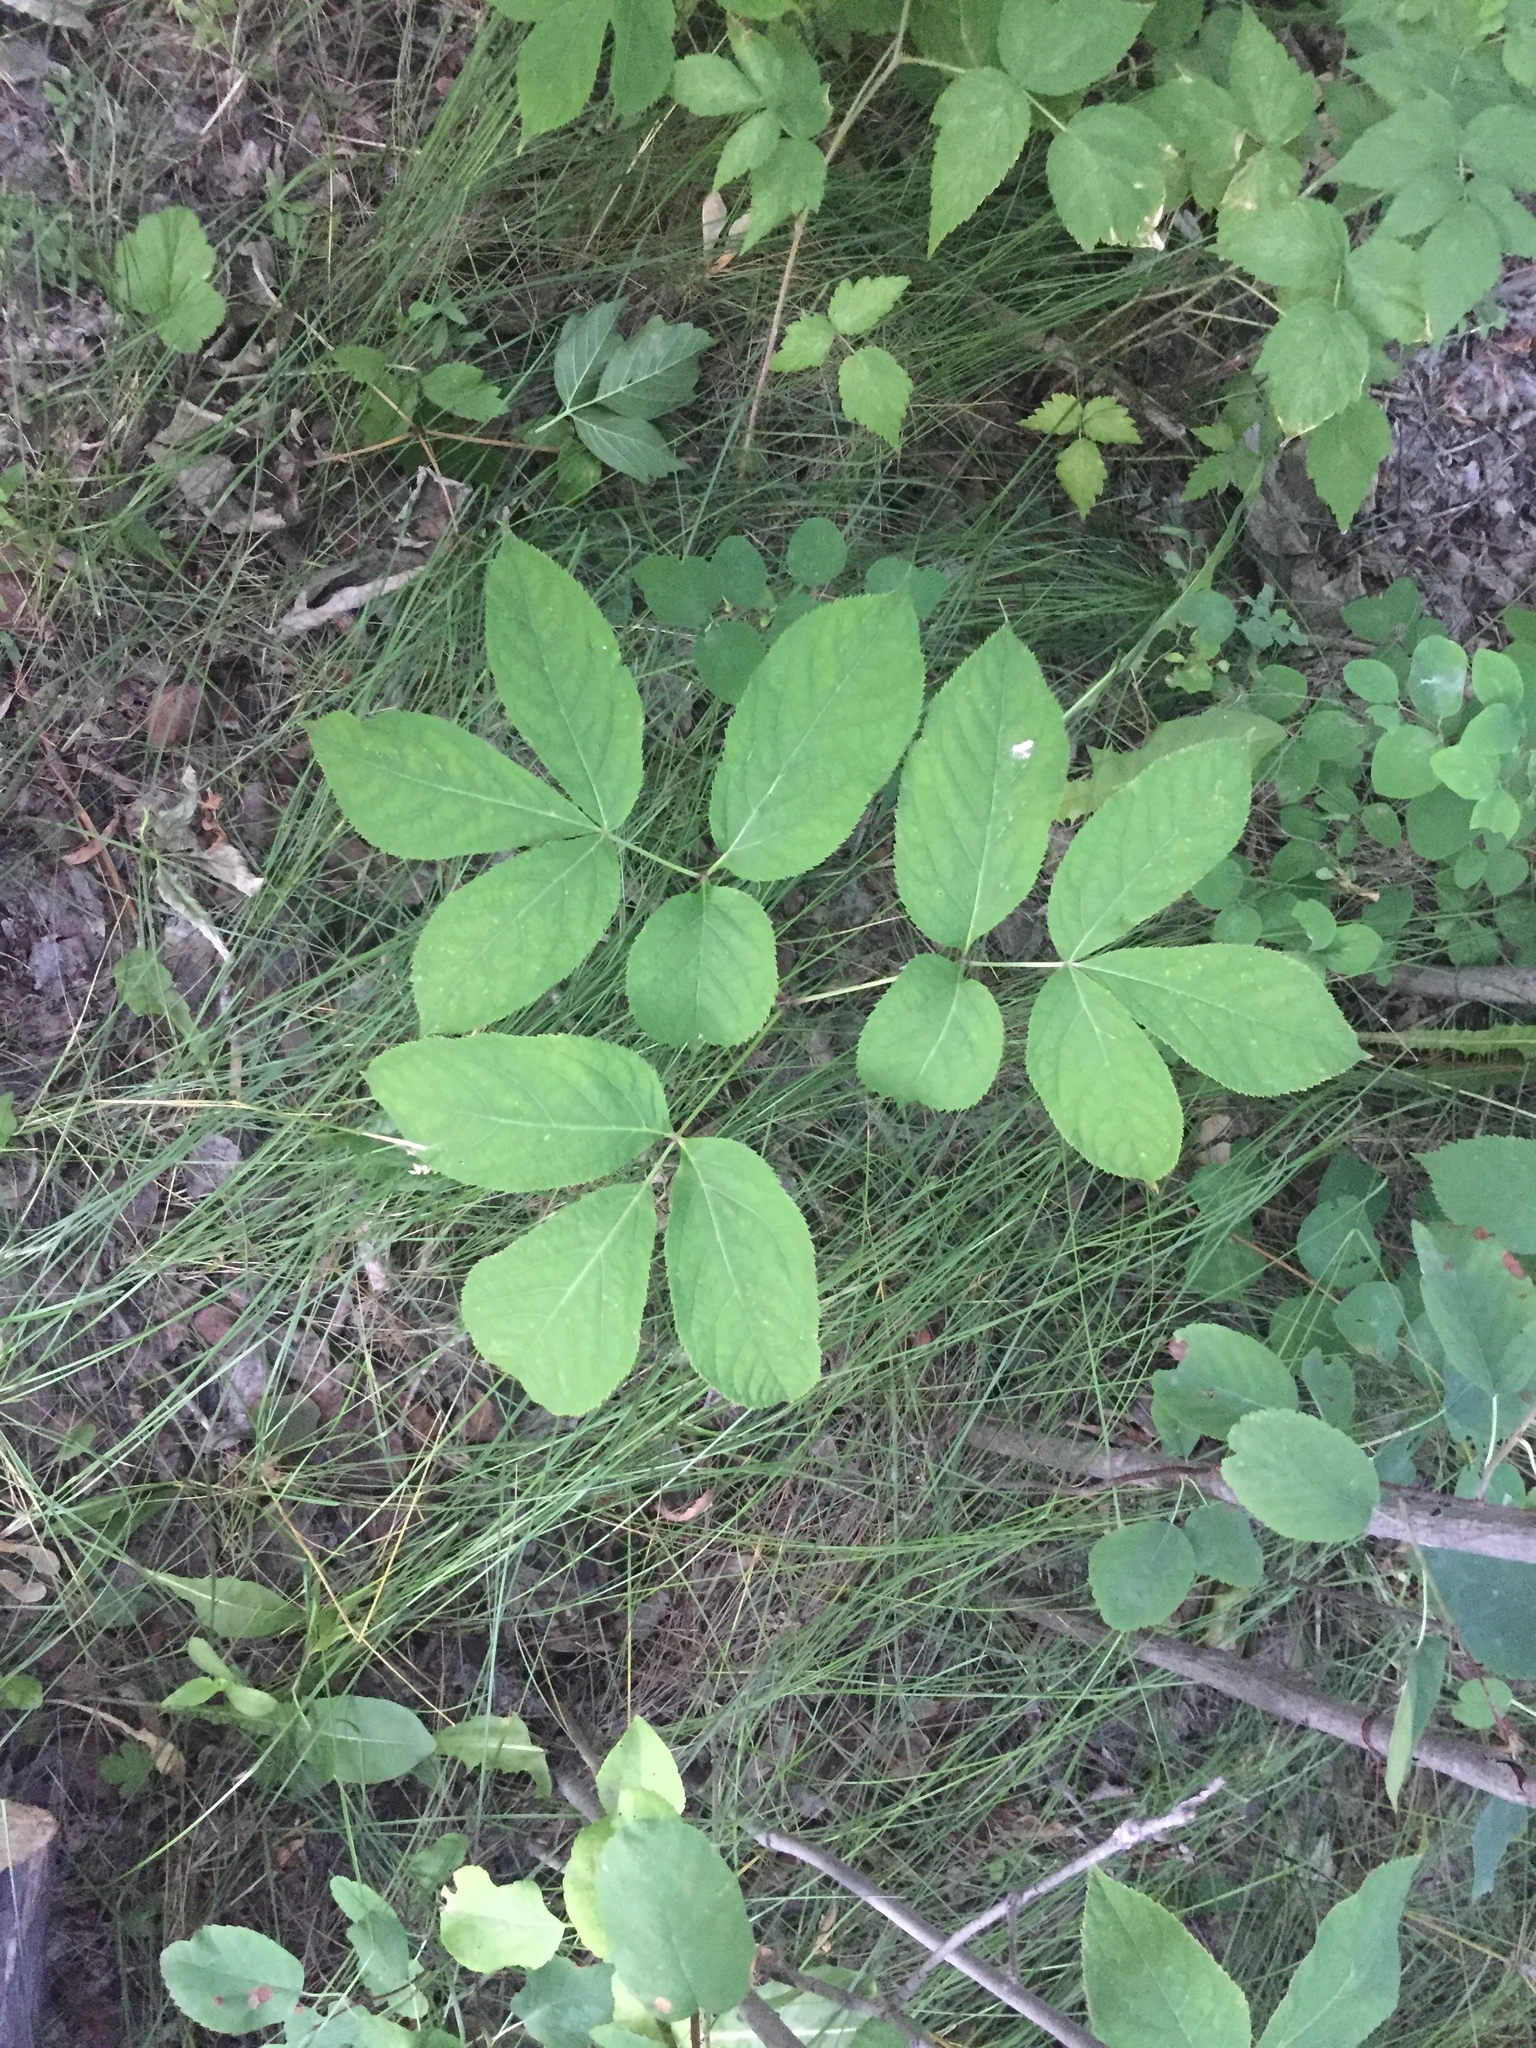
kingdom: Plantae
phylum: Tracheophyta
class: Magnoliopsida
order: Apiales
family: Araliaceae
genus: Aralia
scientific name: Aralia nudicaulis
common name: Wild sarsaparilla
